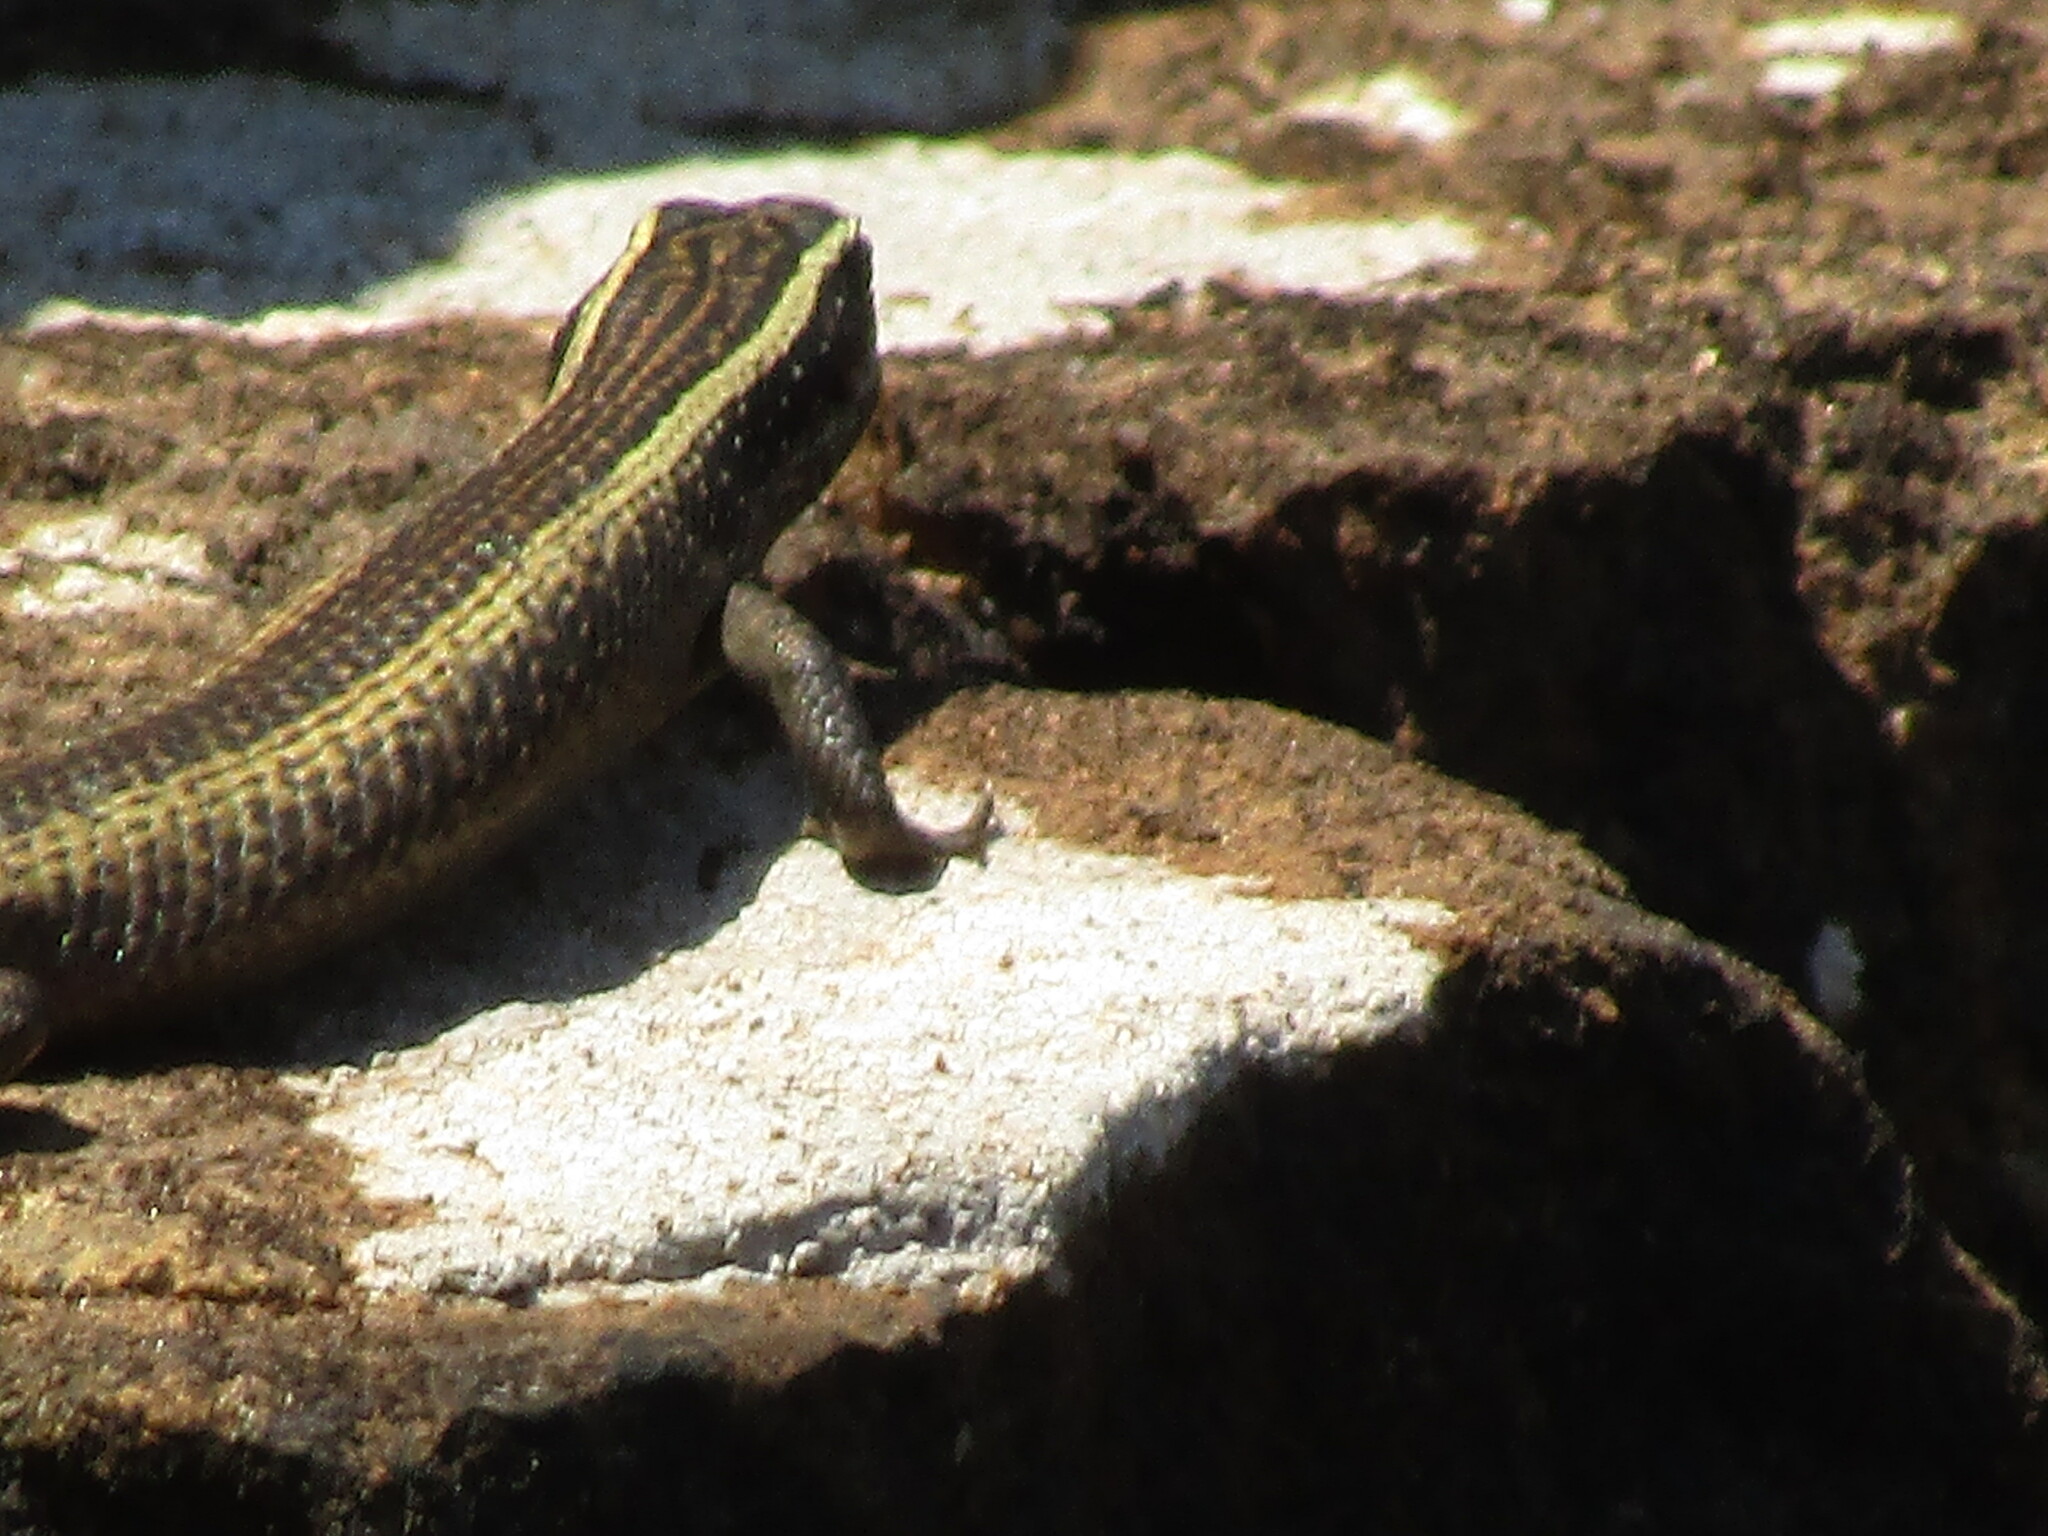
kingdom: Animalia
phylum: Chordata
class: Squamata
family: Scincidae
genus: Trachylepis
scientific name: Trachylepis punctatissima
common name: Montane speckled skink
